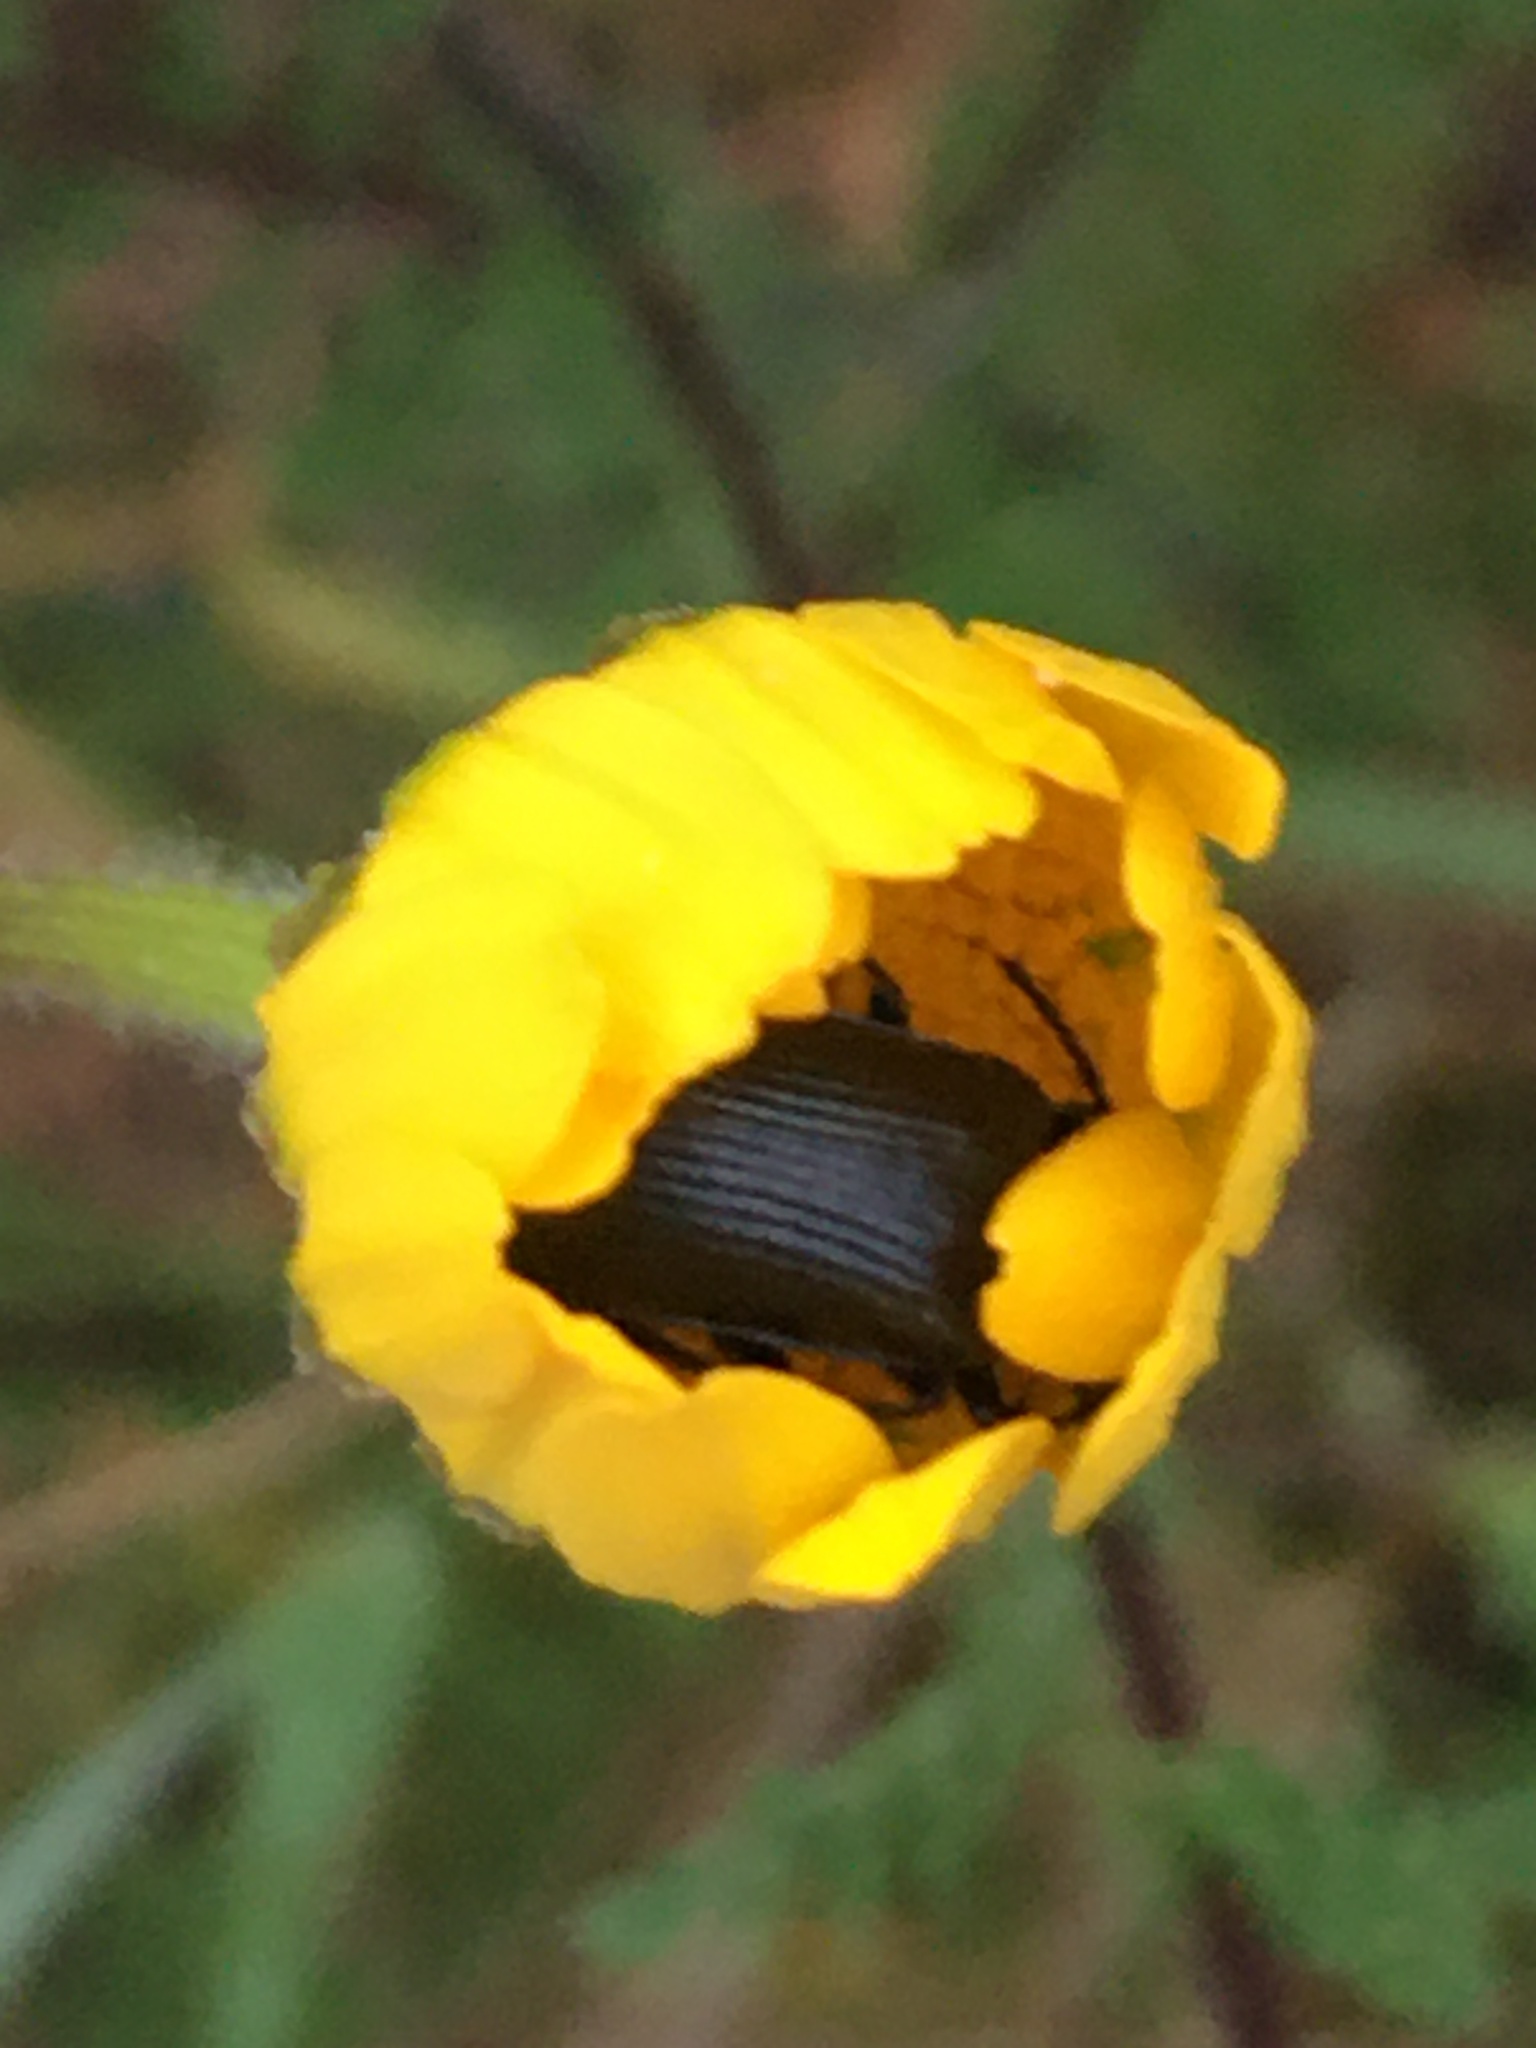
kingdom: Animalia
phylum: Arthropoda
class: Insecta
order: Coleoptera
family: Tenebrionidae
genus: Heliotaurus
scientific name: Heliotaurus ruficollis
